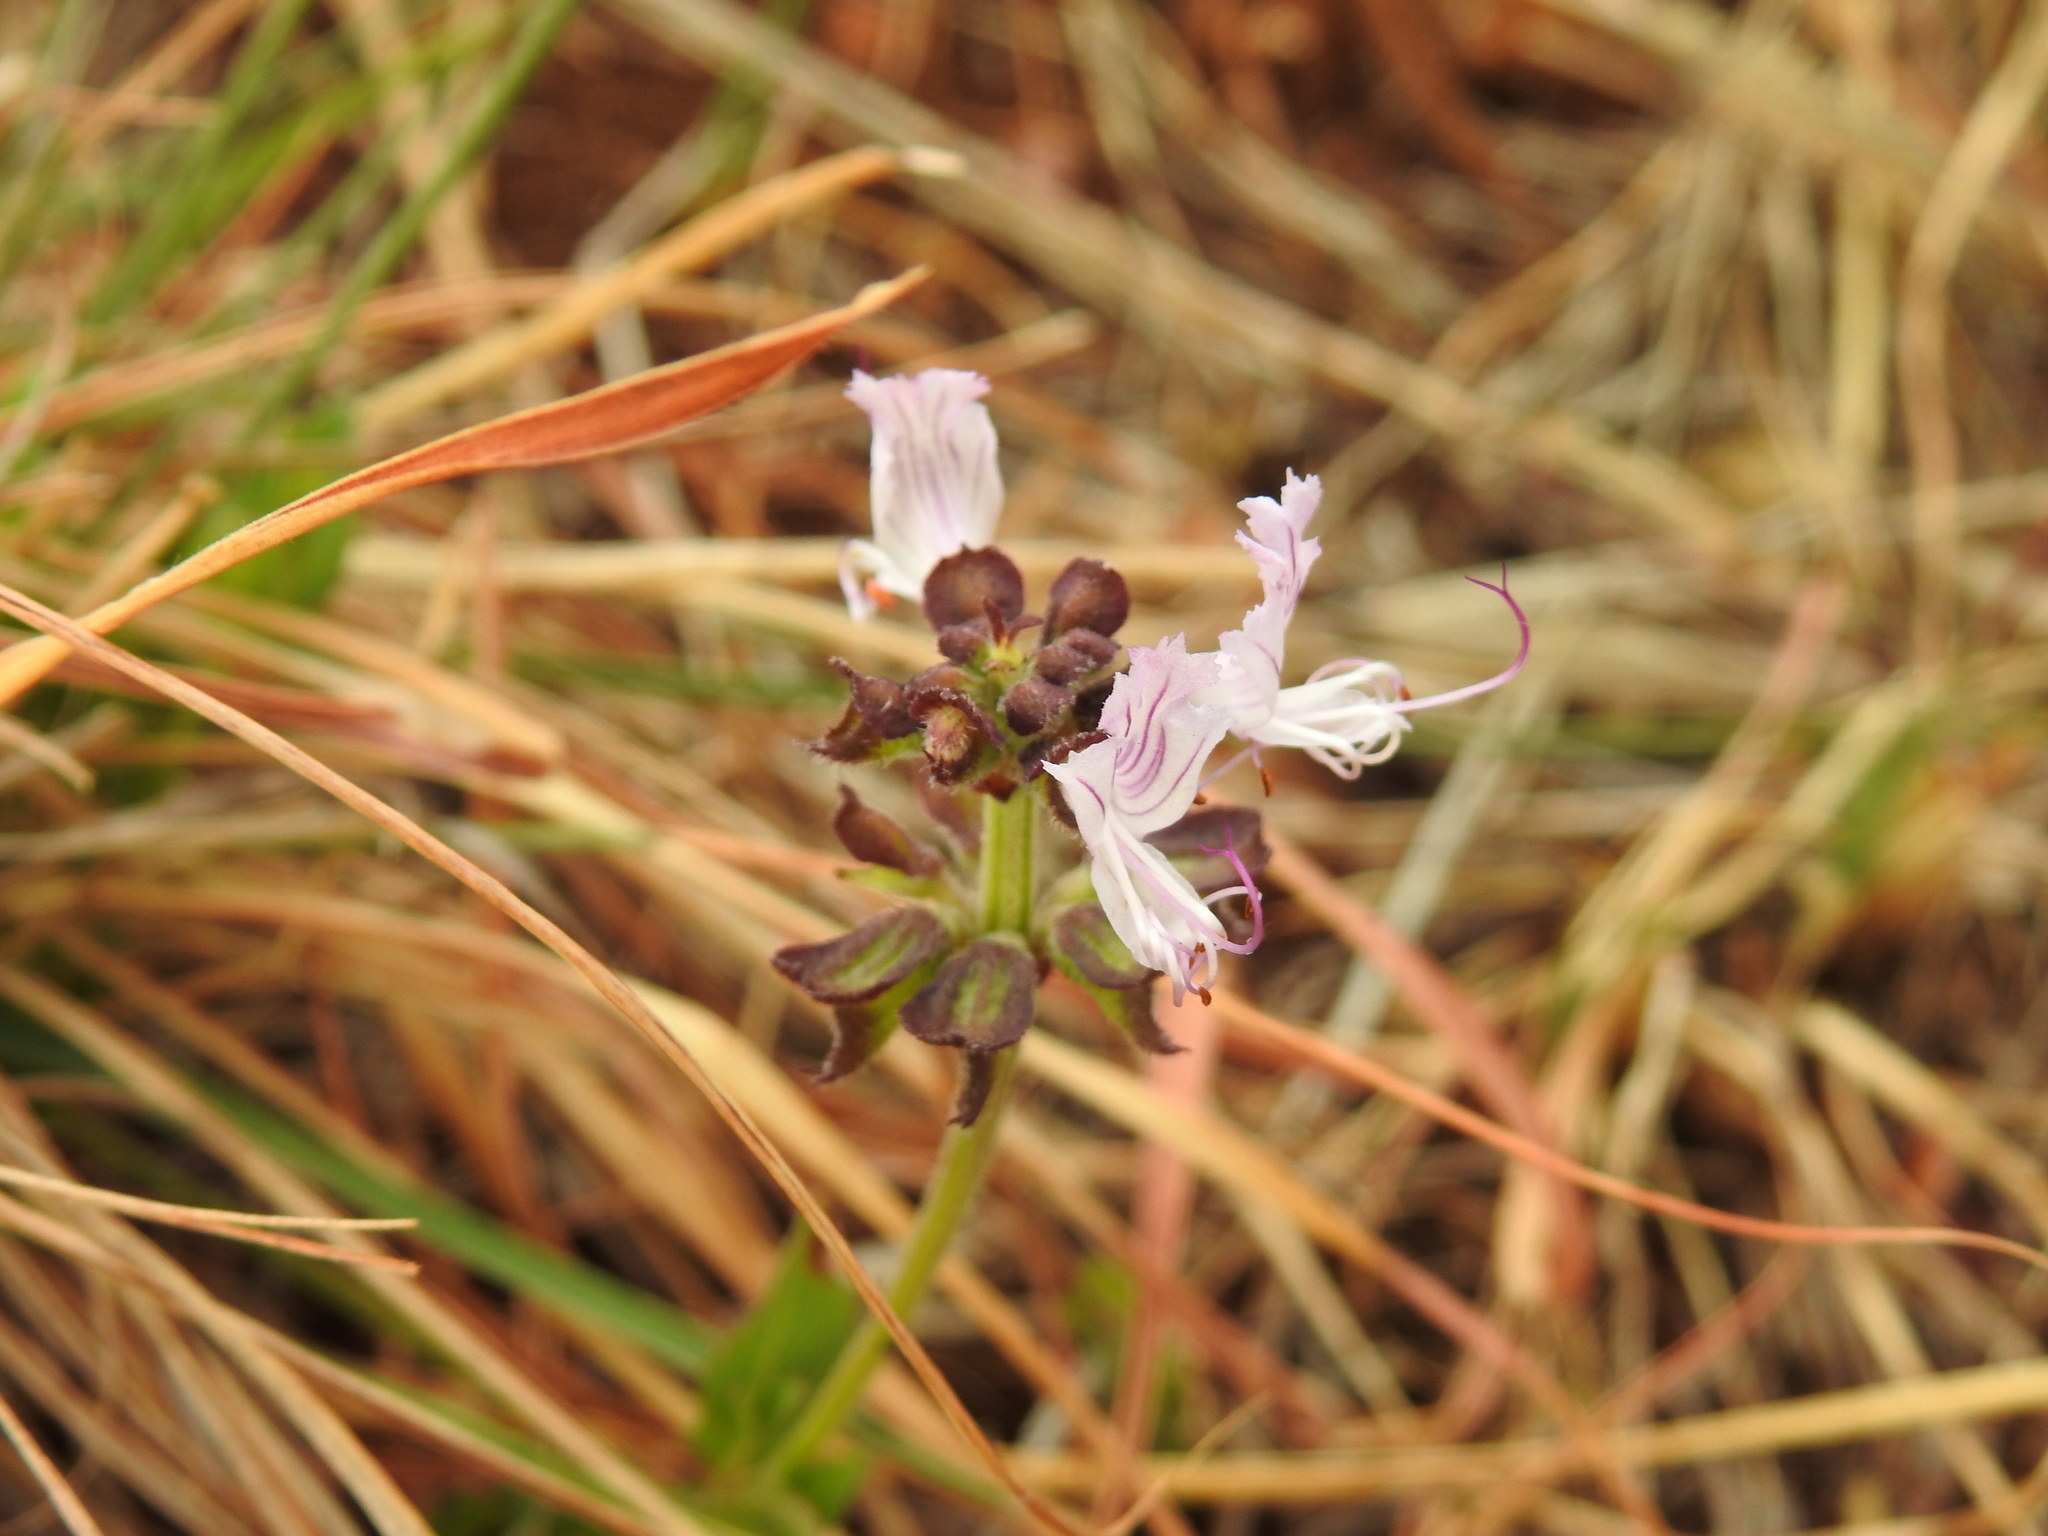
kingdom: Plantae
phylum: Tracheophyta
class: Magnoliopsida
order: Lamiales
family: Lamiaceae
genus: Ocimum
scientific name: Ocimum obovatum
